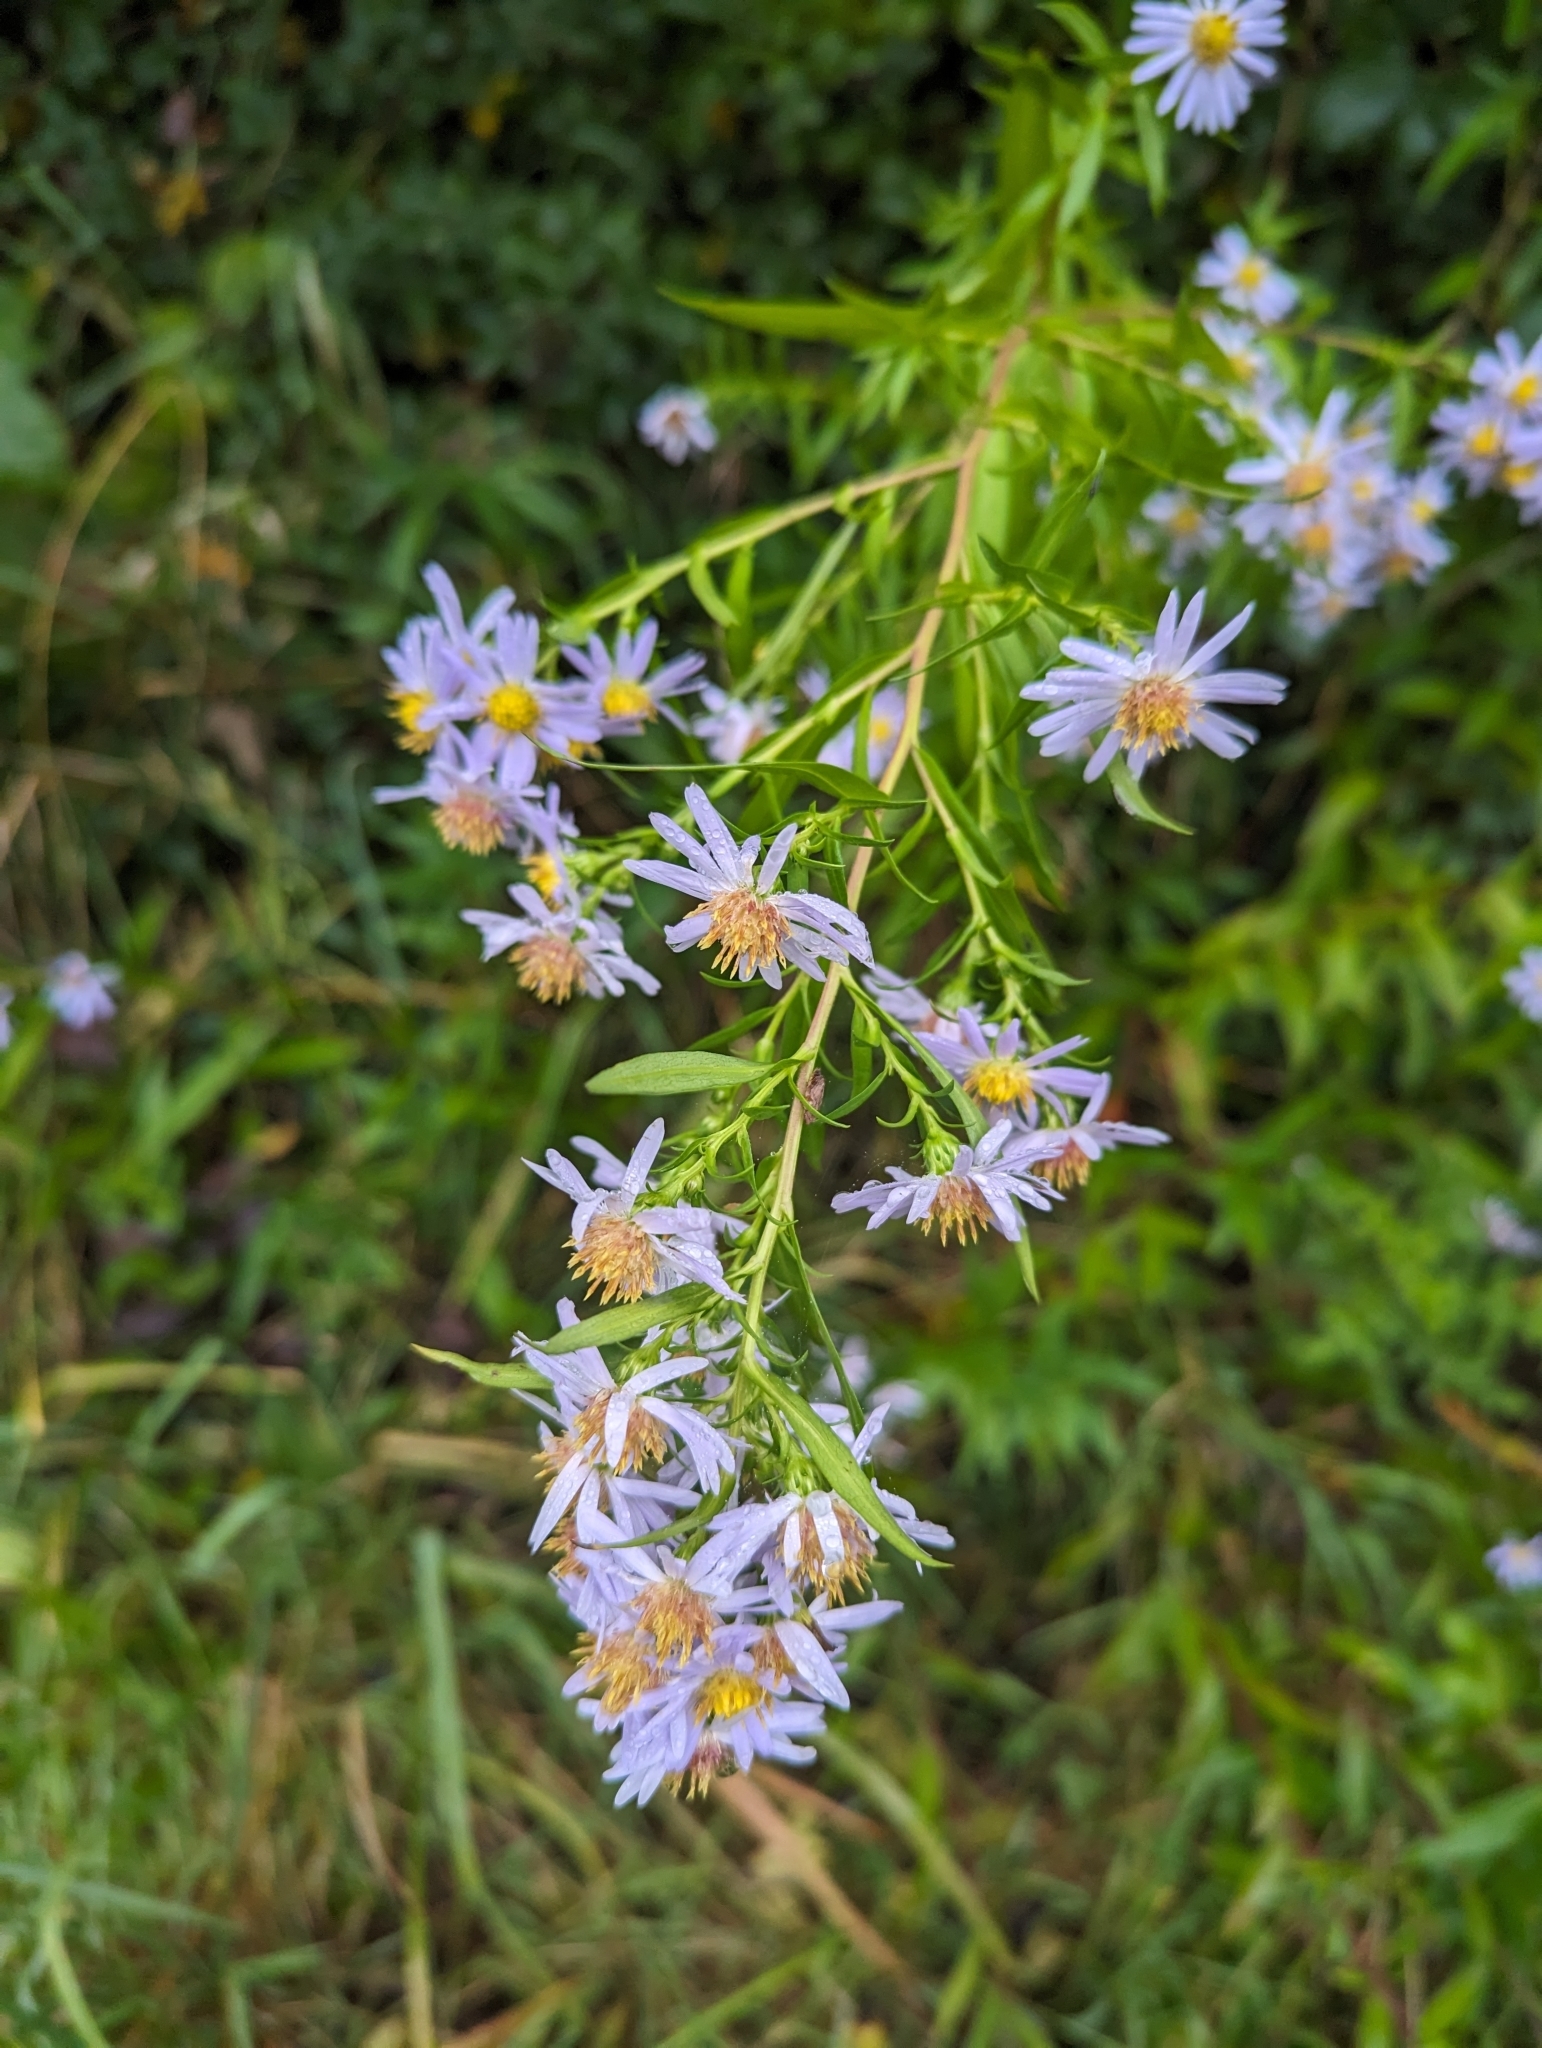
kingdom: Plantae
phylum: Tracheophyta
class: Magnoliopsida
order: Asterales
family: Asteraceae
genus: Symphyotrichum
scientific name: Symphyotrichum novi-belgii
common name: Michaelmas daisy
